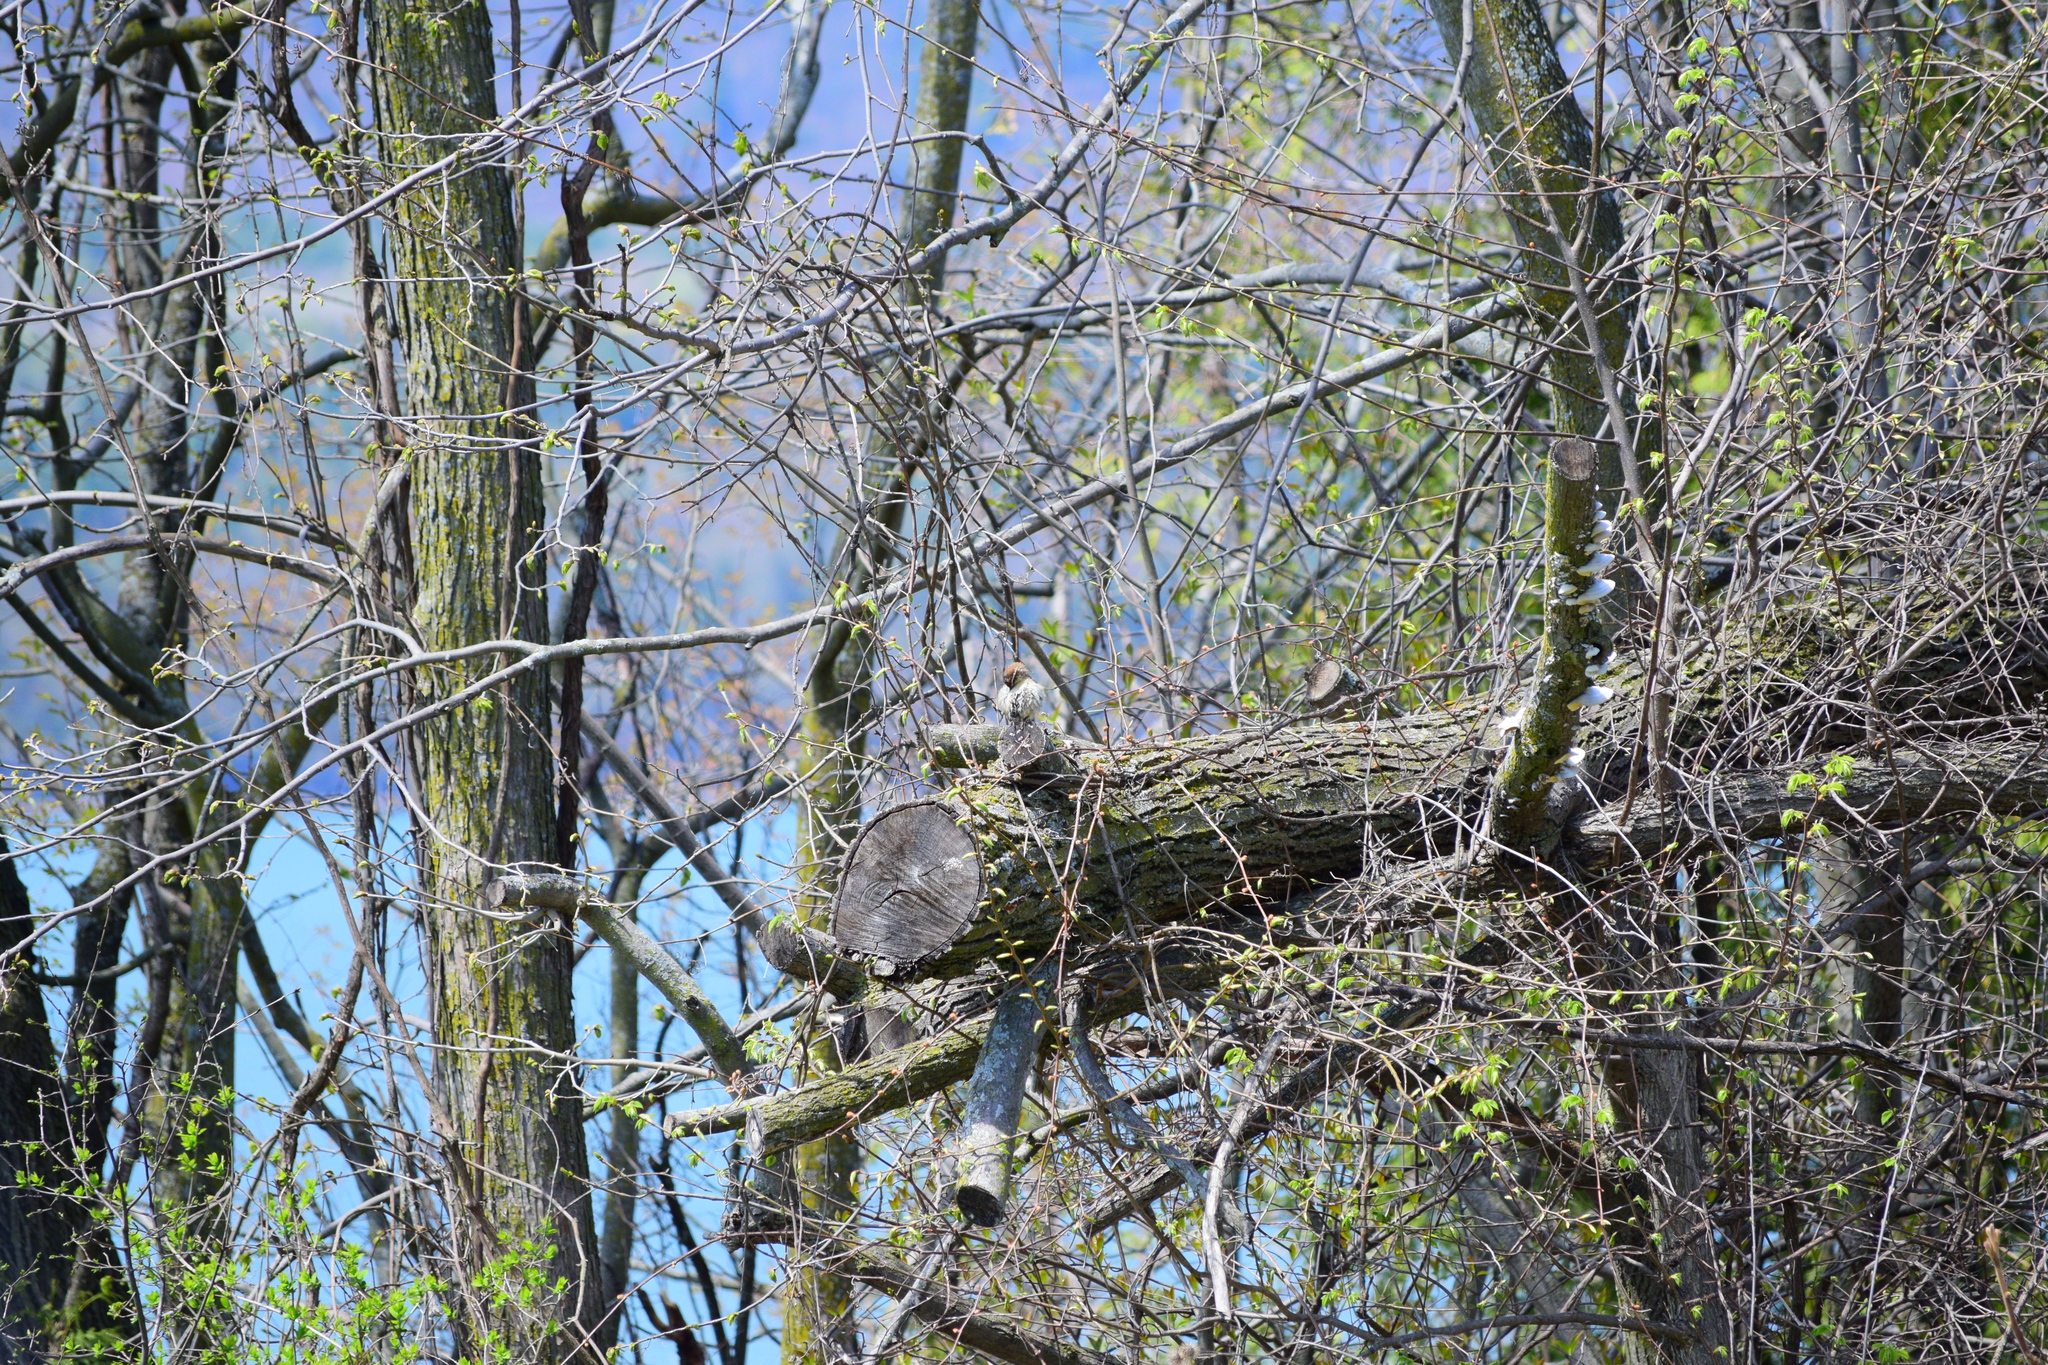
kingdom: Animalia
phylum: Chordata
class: Aves
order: Passeriformes
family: Troglodytidae
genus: Thryothorus
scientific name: Thryothorus ludovicianus
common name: Carolina wren
